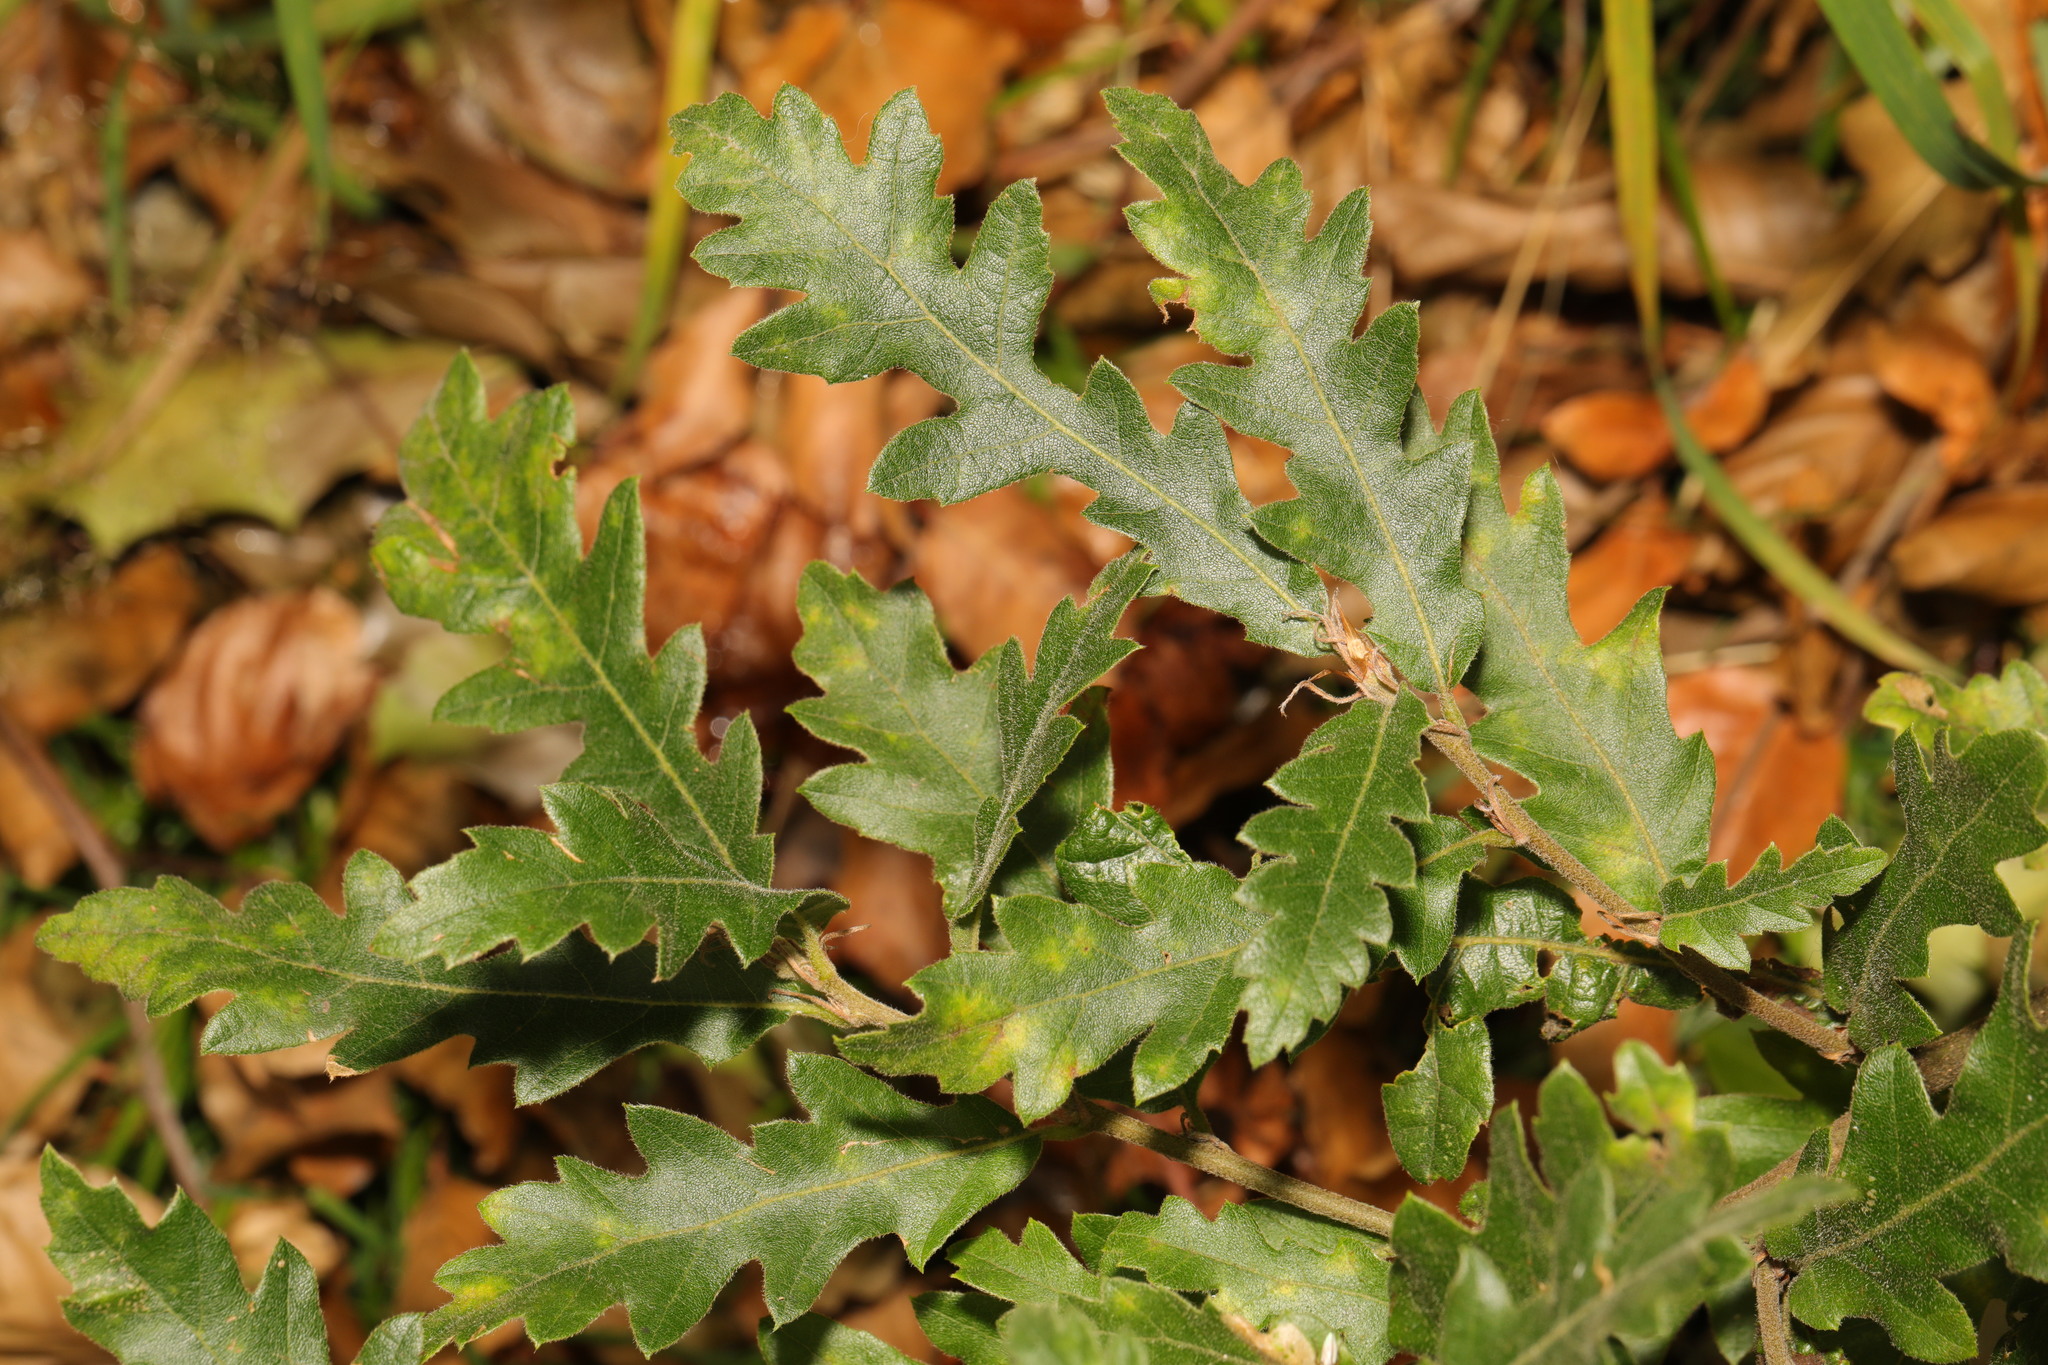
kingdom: Plantae
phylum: Tracheophyta
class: Magnoliopsida
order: Fagales
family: Fagaceae
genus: Quercus
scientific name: Quercus cerris
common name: Turkey oak
